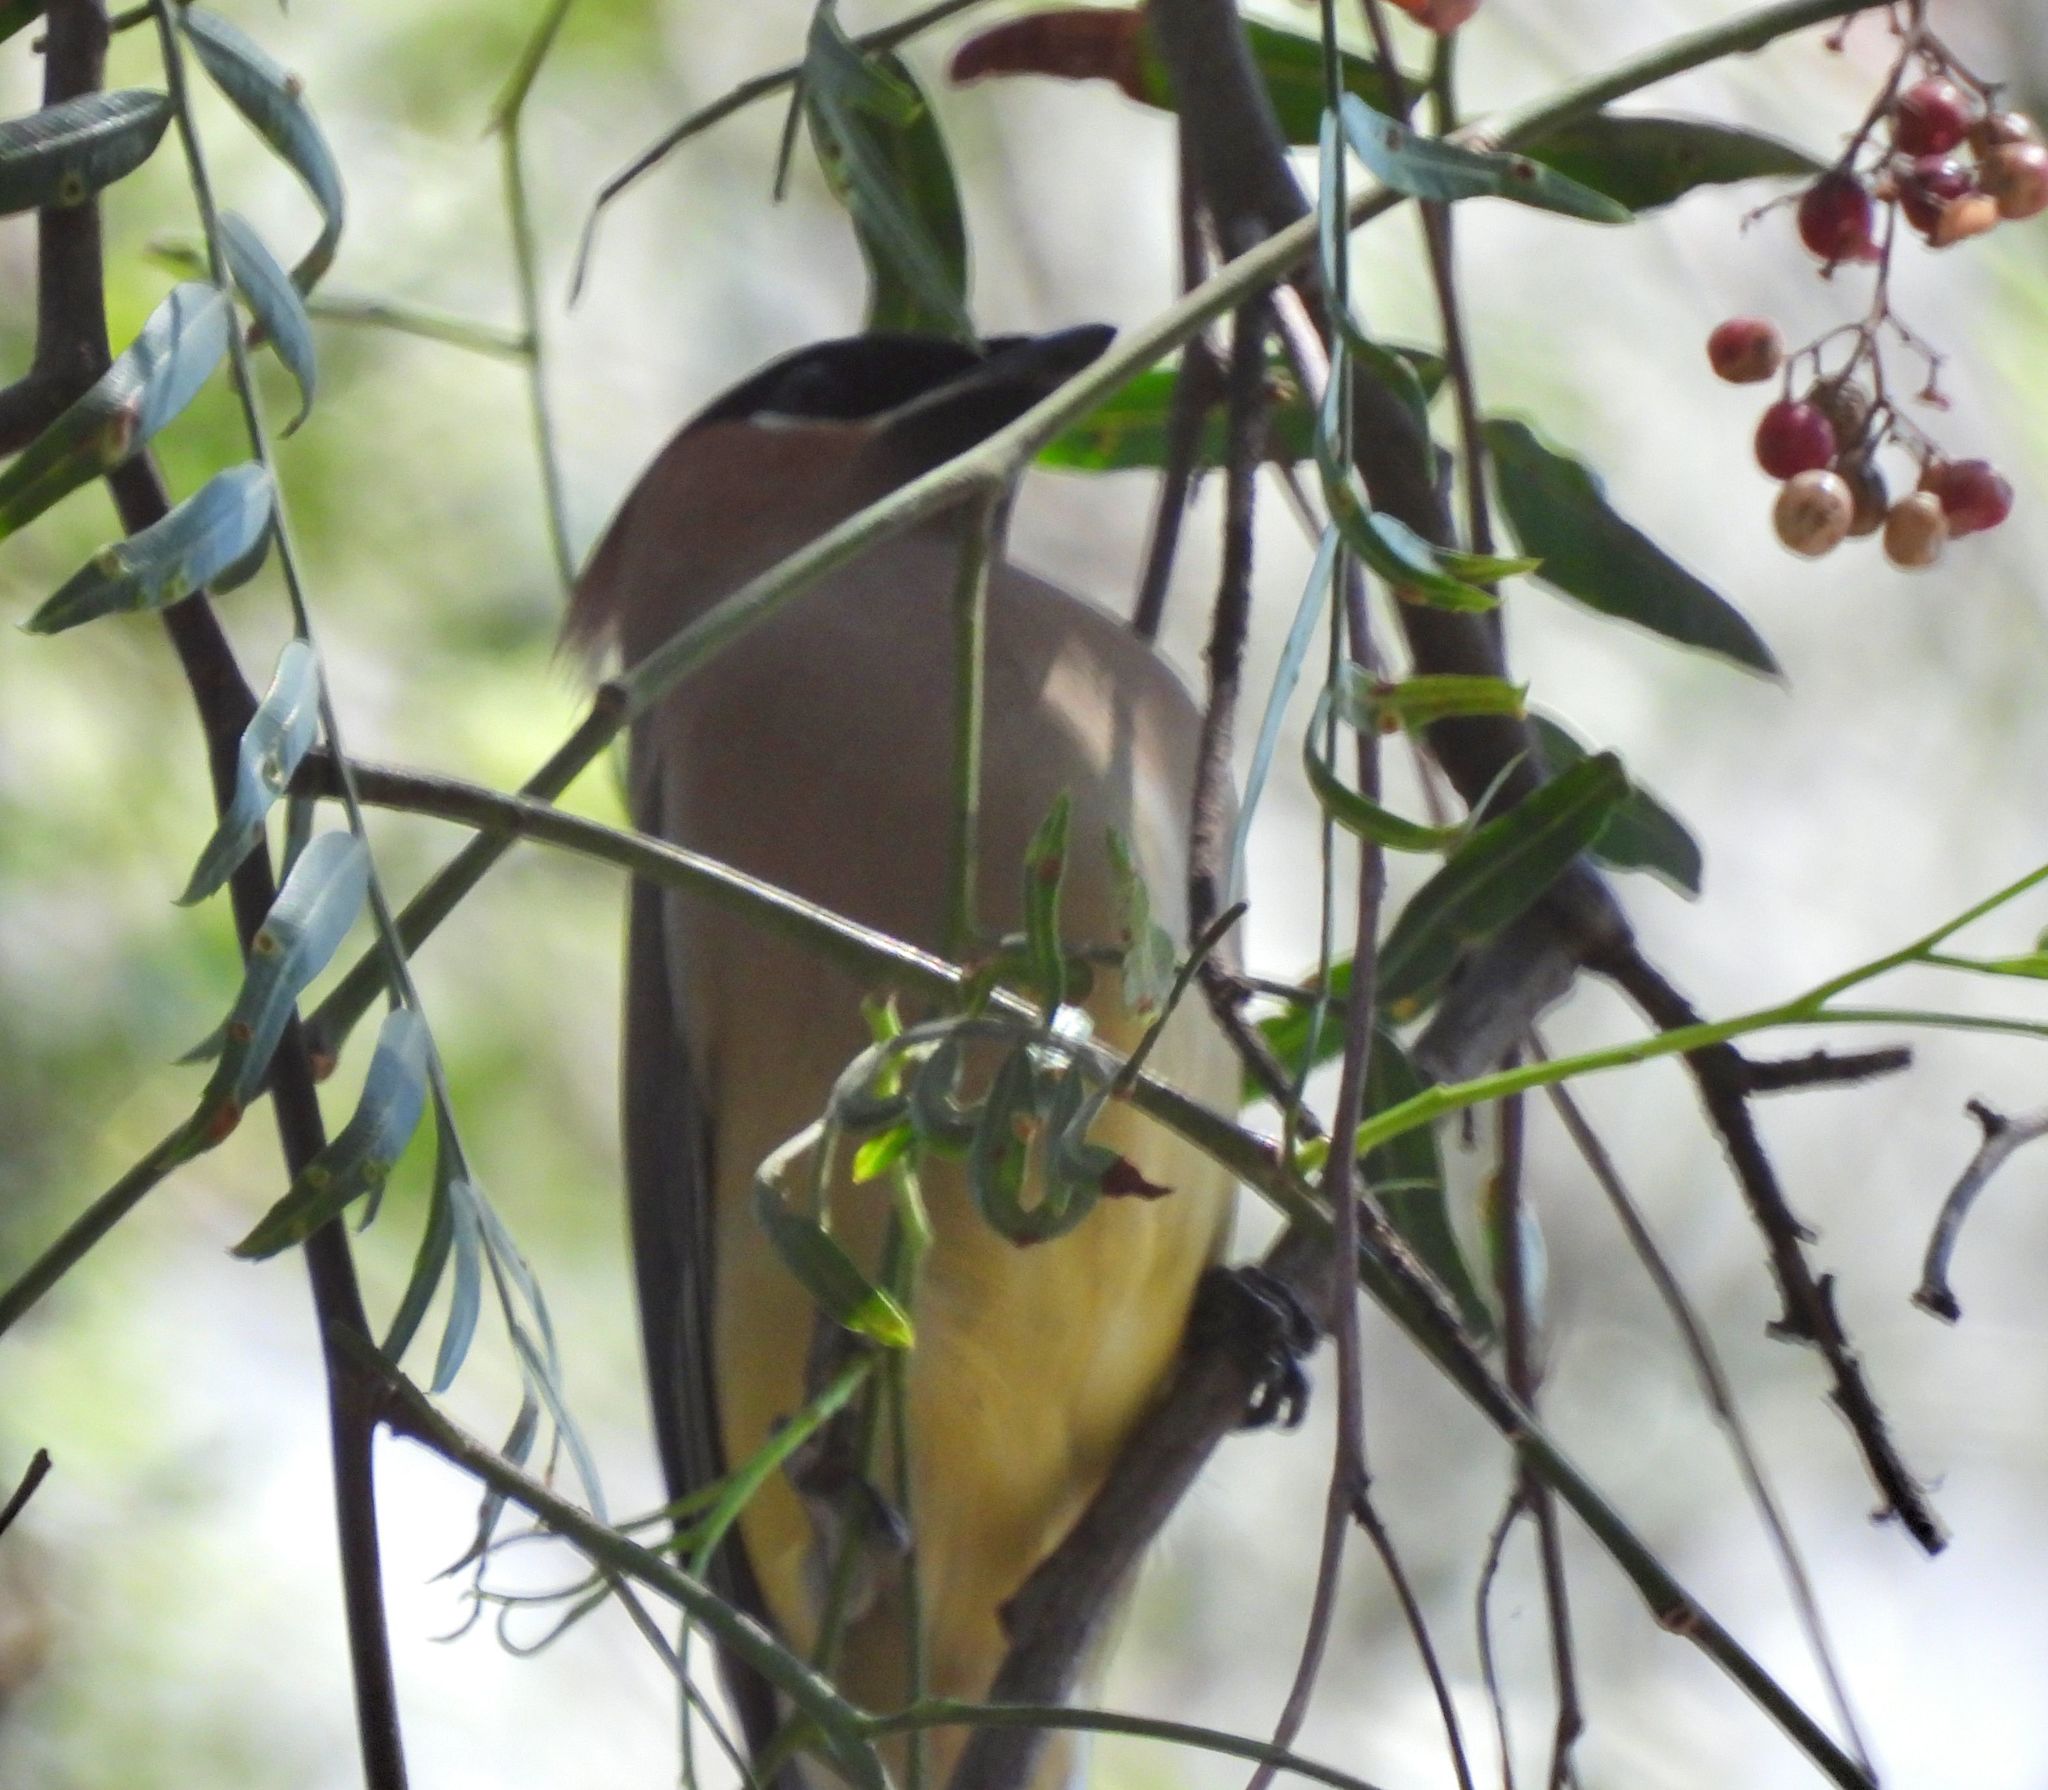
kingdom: Animalia
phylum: Chordata
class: Aves
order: Passeriformes
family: Bombycillidae
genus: Bombycilla
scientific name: Bombycilla cedrorum
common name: Cedar waxwing
